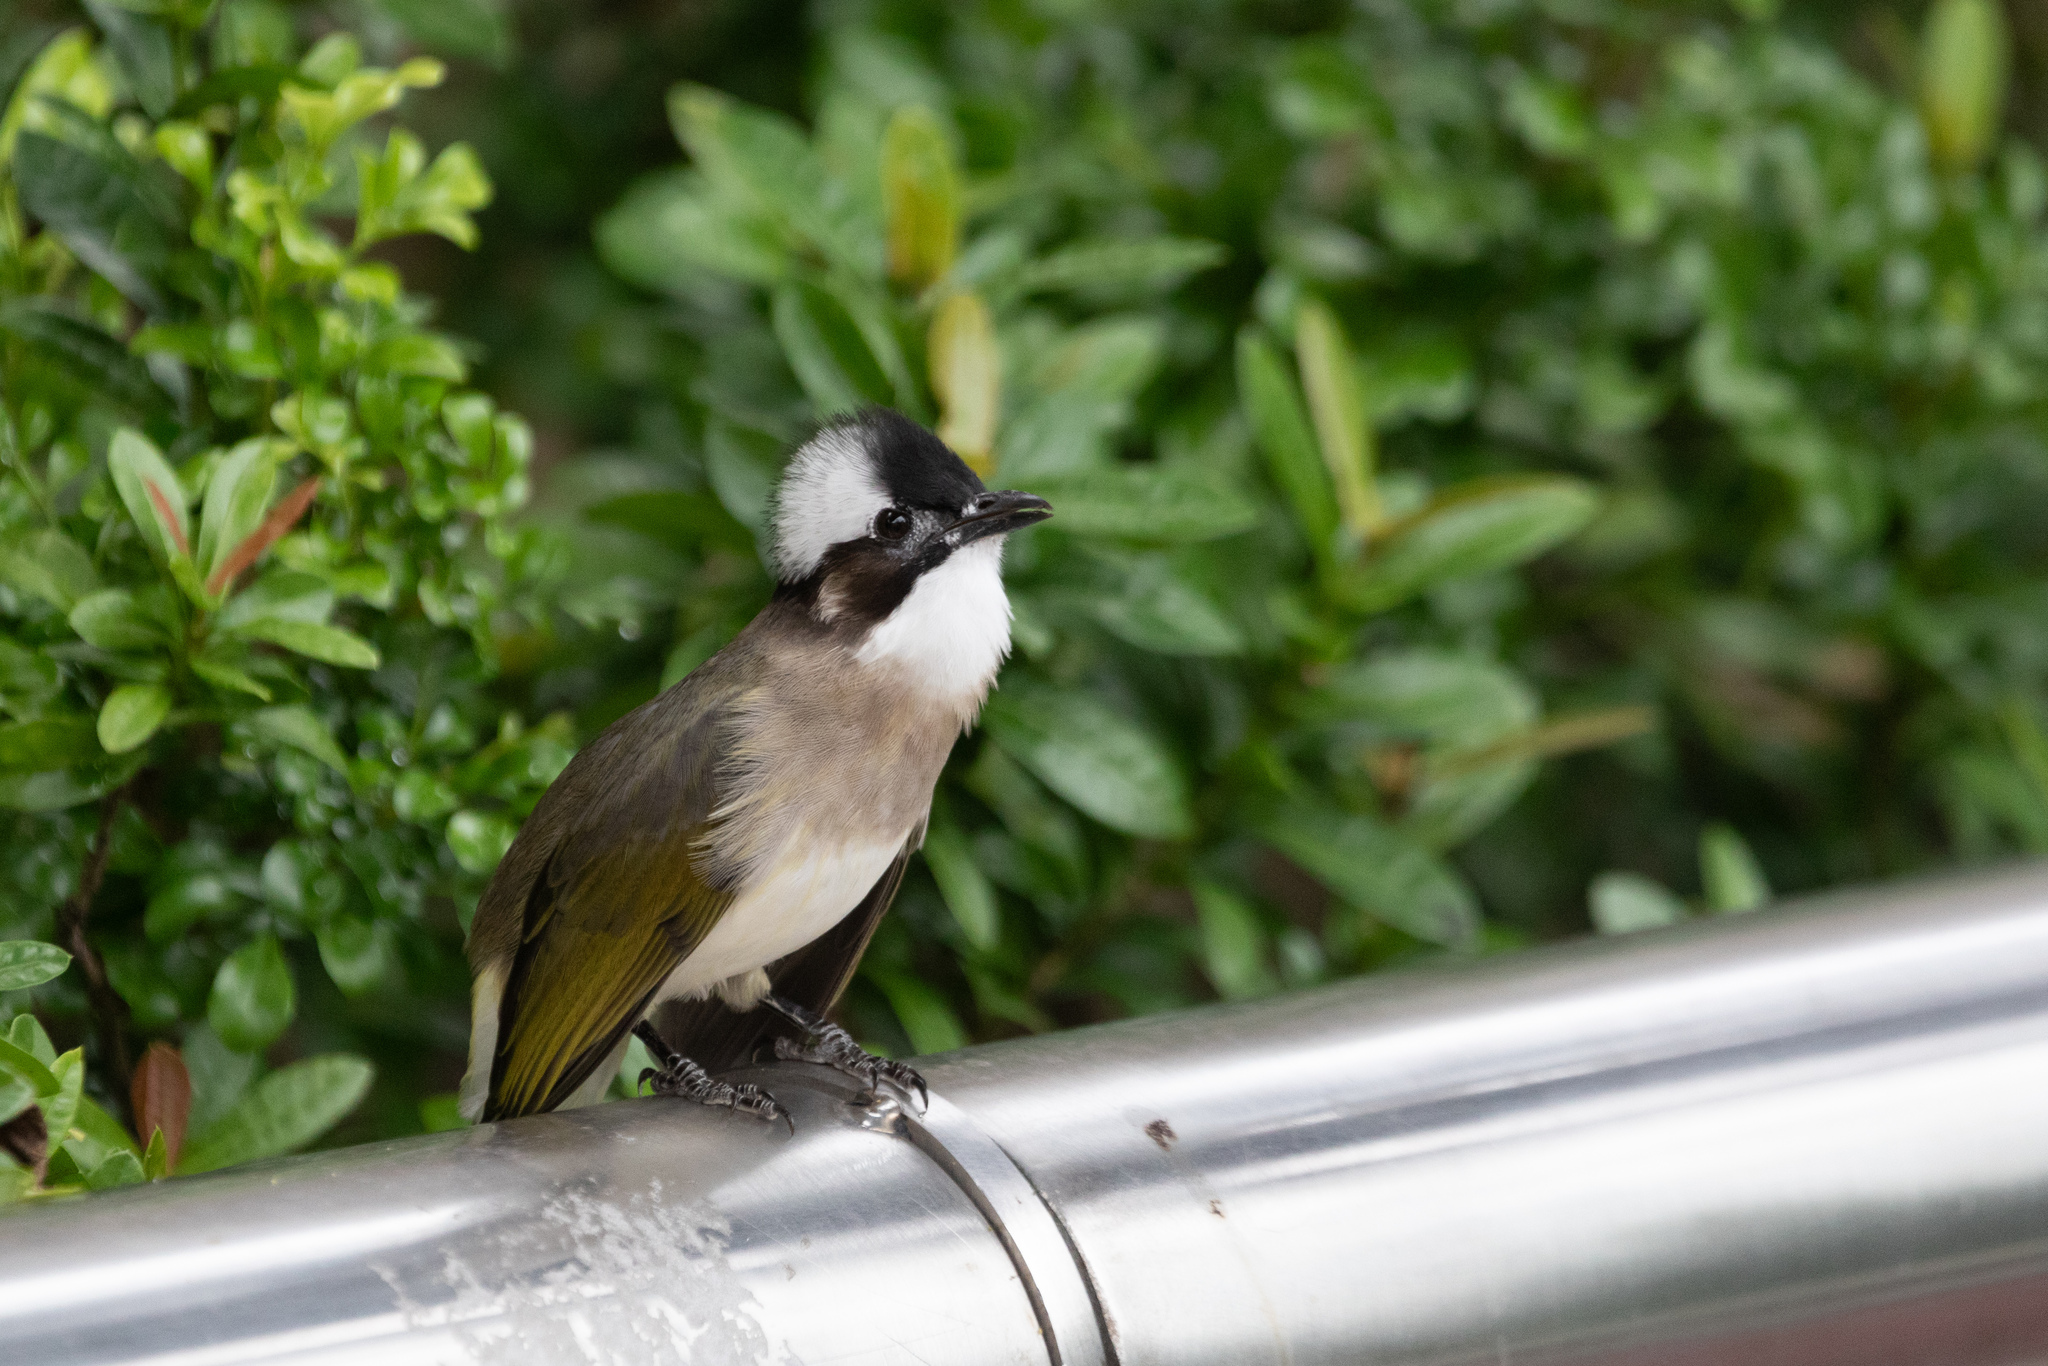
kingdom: Animalia
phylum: Chordata
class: Aves
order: Passeriformes
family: Pycnonotidae
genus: Pycnonotus
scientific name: Pycnonotus sinensis
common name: Light-vented bulbul
